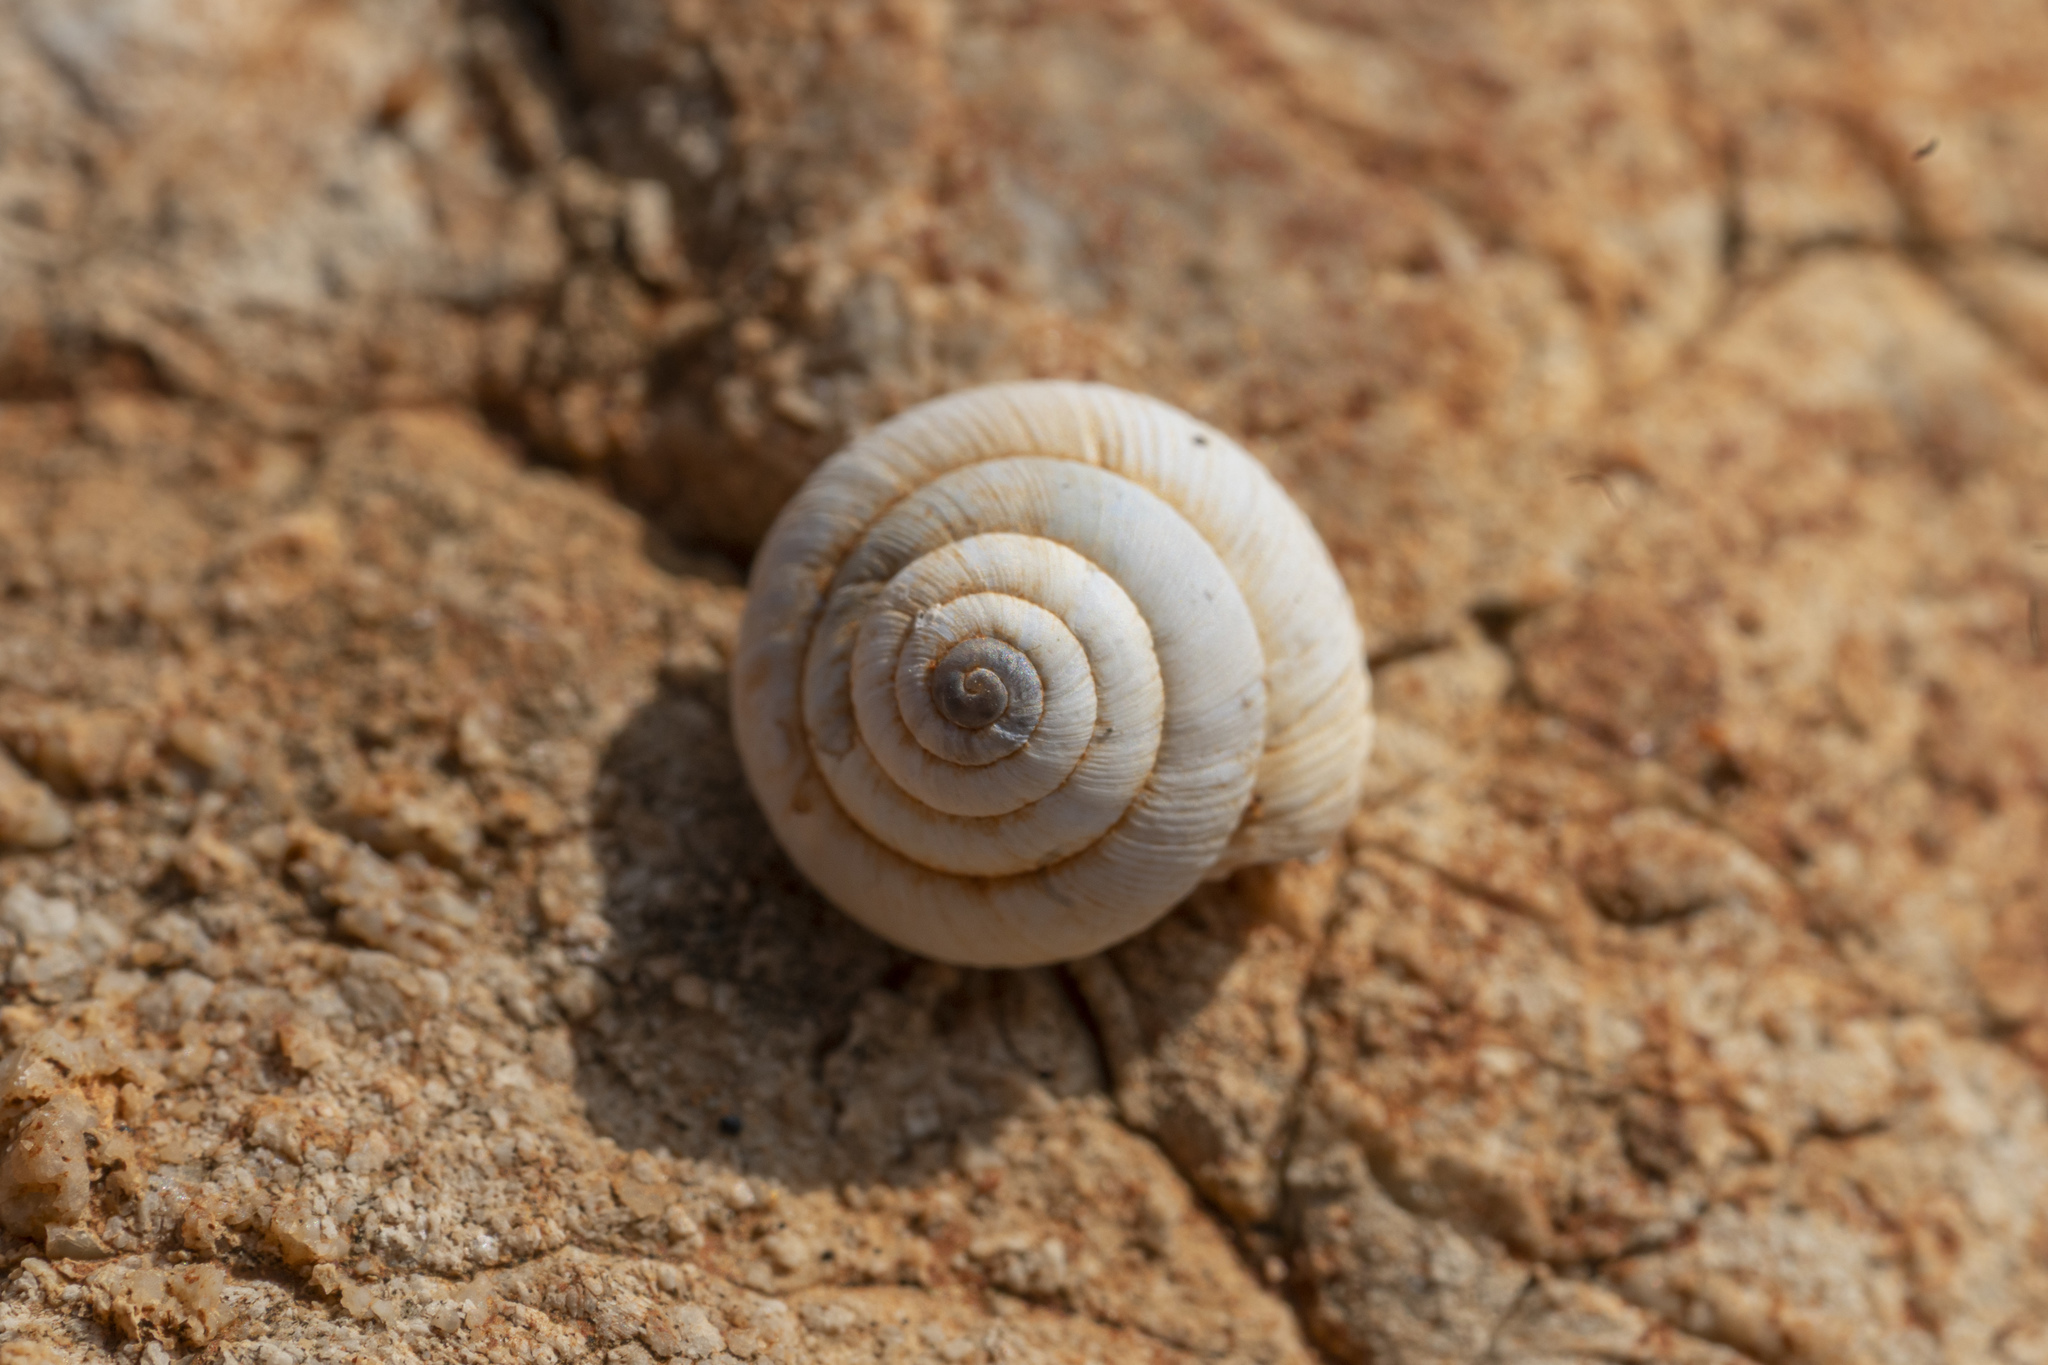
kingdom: Animalia
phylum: Mollusca
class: Gastropoda
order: Stylommatophora
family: Geomitridae
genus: Trochoidea
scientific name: Trochoidea pyramidata
